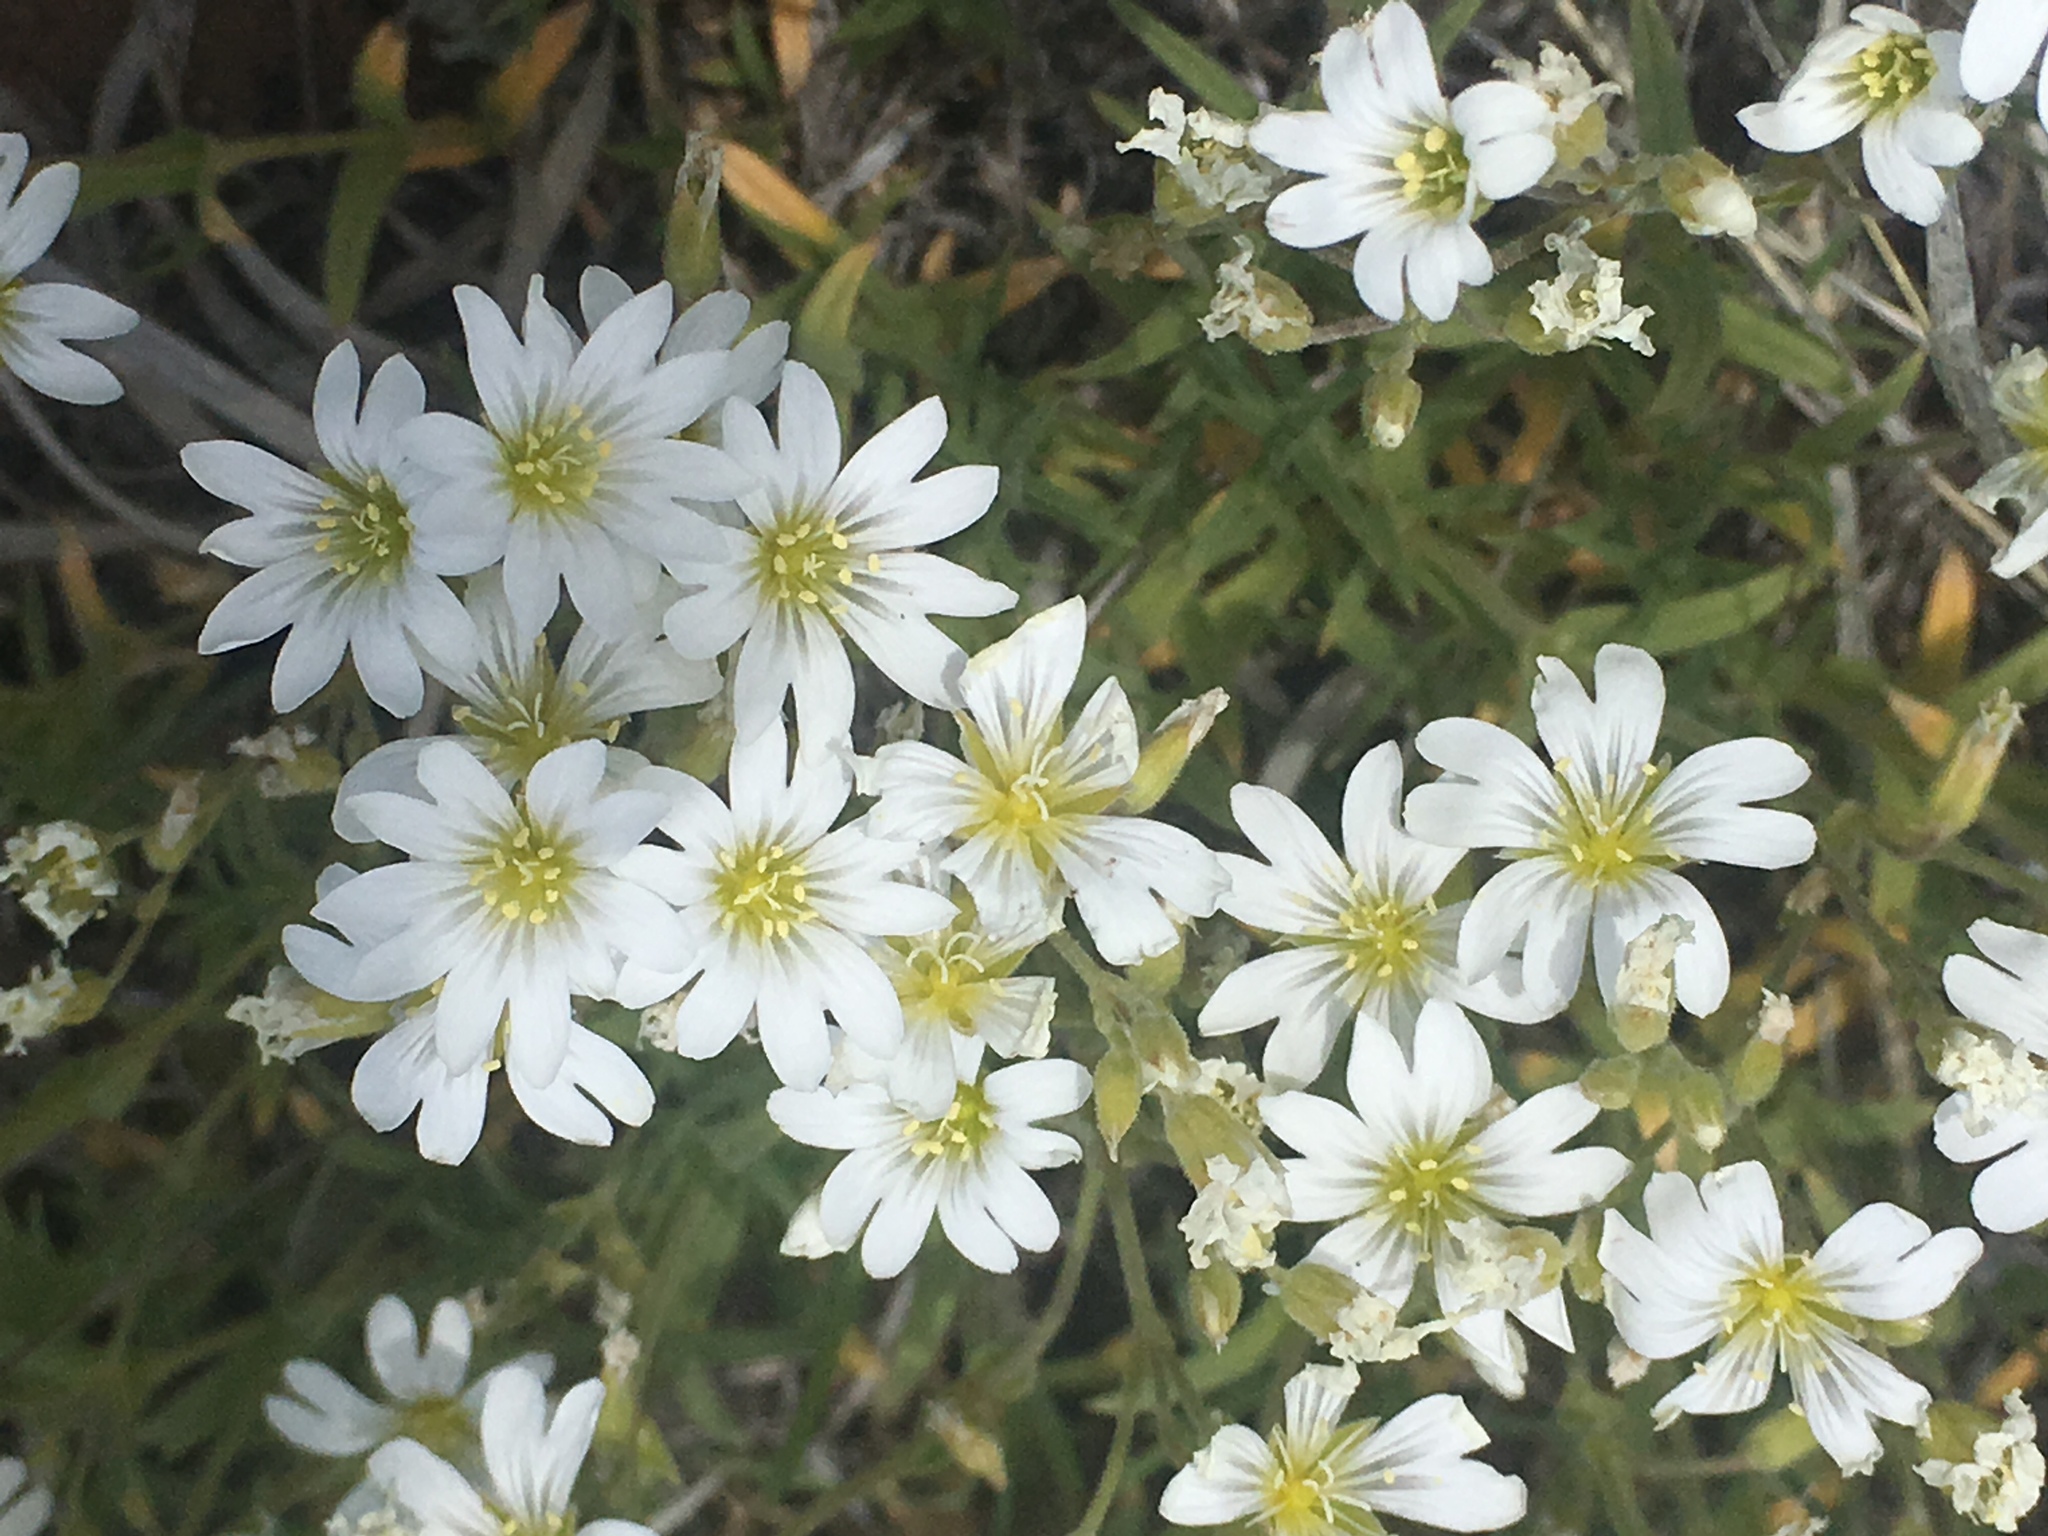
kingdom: Plantae
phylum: Tracheophyta
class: Magnoliopsida
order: Caryophyllales
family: Caryophyllaceae
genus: Cerastium
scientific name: Cerastium arvense
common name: Field mouse-ear
